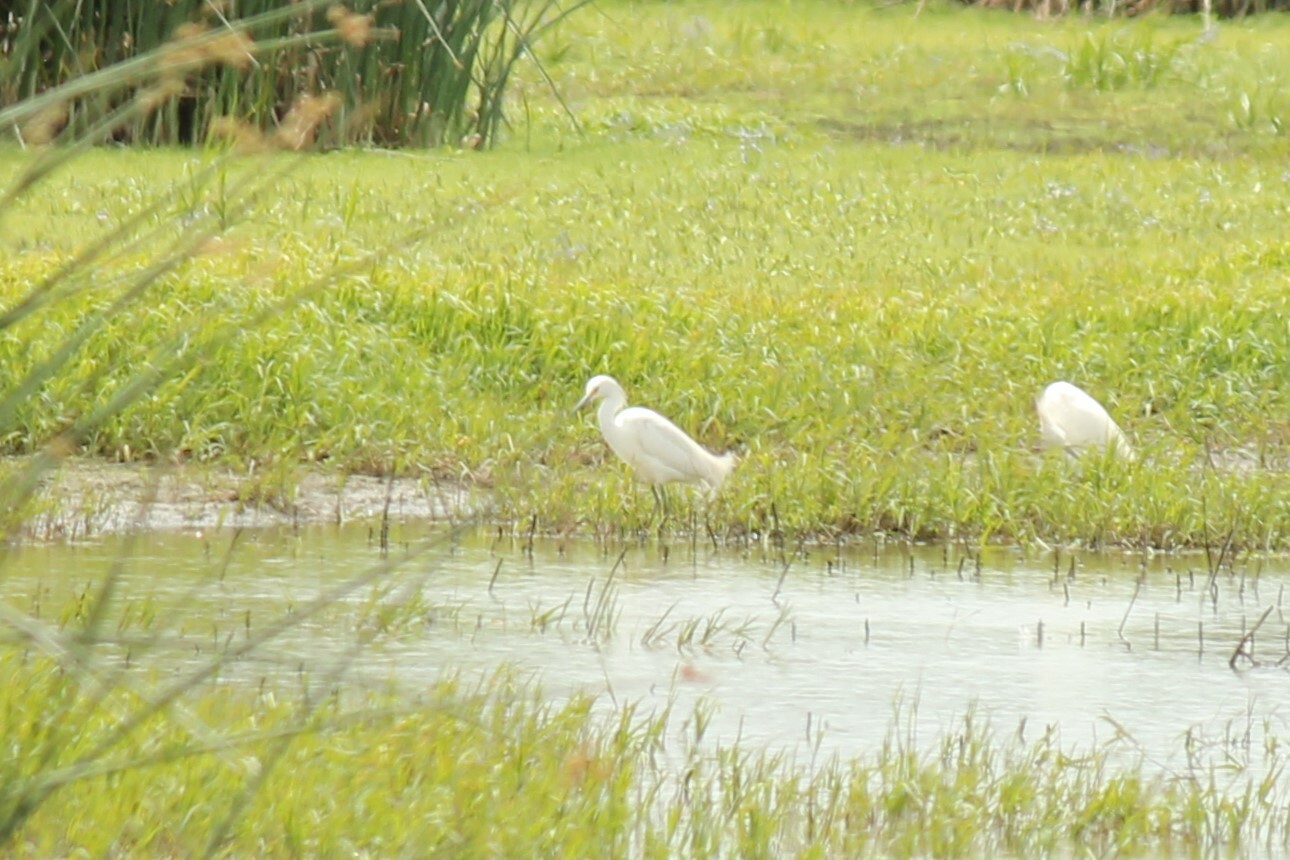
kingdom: Animalia
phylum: Chordata
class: Aves
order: Pelecaniformes
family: Ardeidae
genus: Egretta
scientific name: Egretta thula
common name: Snowy egret
